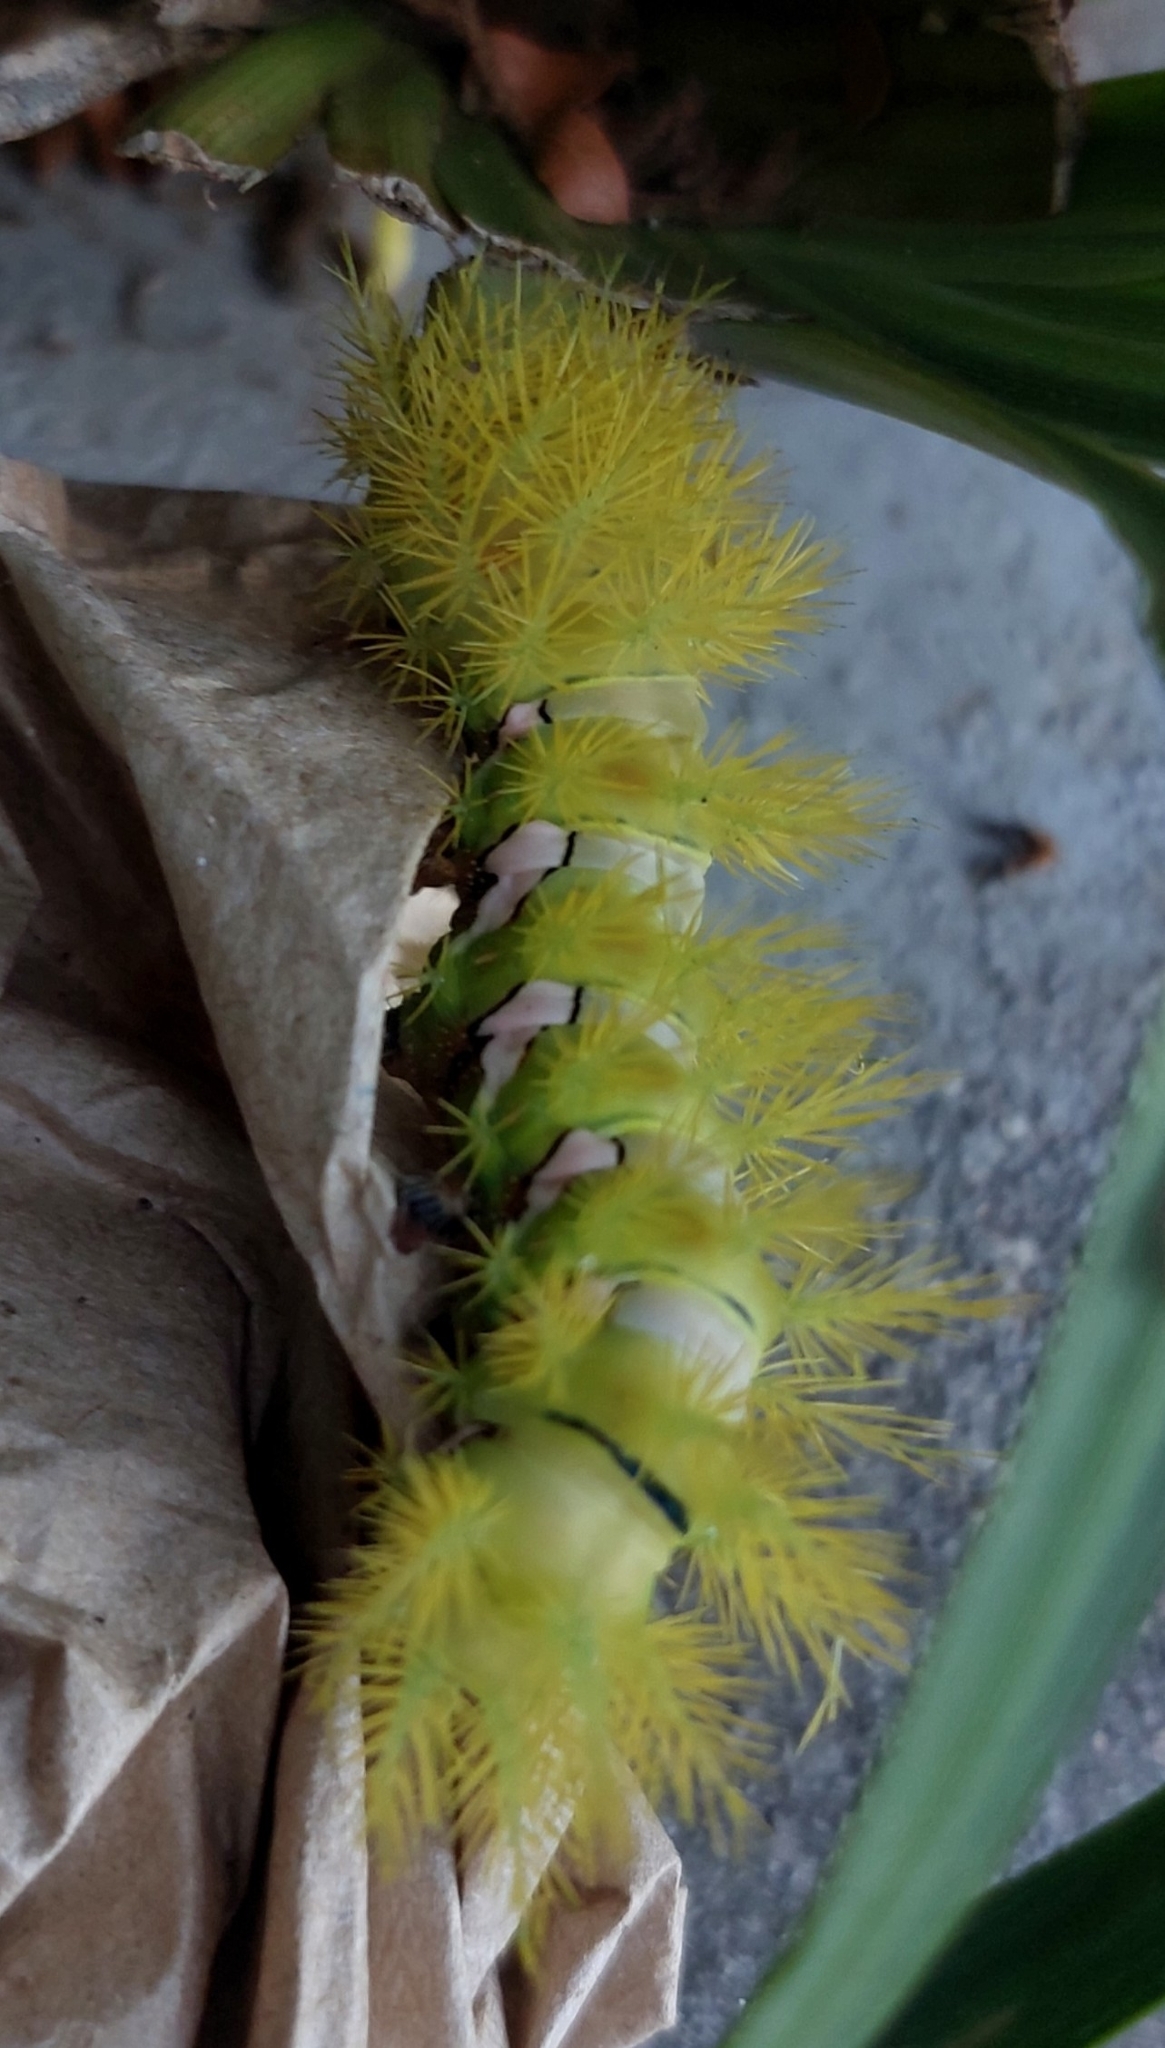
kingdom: Animalia
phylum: Arthropoda
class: Insecta
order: Lepidoptera
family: Saturniidae
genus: Automeris
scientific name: Automeris naranja
